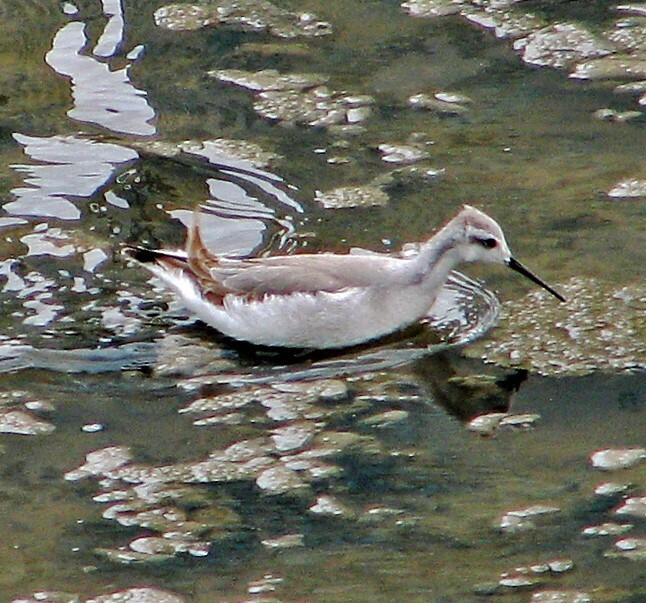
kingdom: Animalia
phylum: Chordata
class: Aves
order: Charadriiformes
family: Scolopacidae
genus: Phalaropus
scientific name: Phalaropus tricolor
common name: Wilson's phalarope
